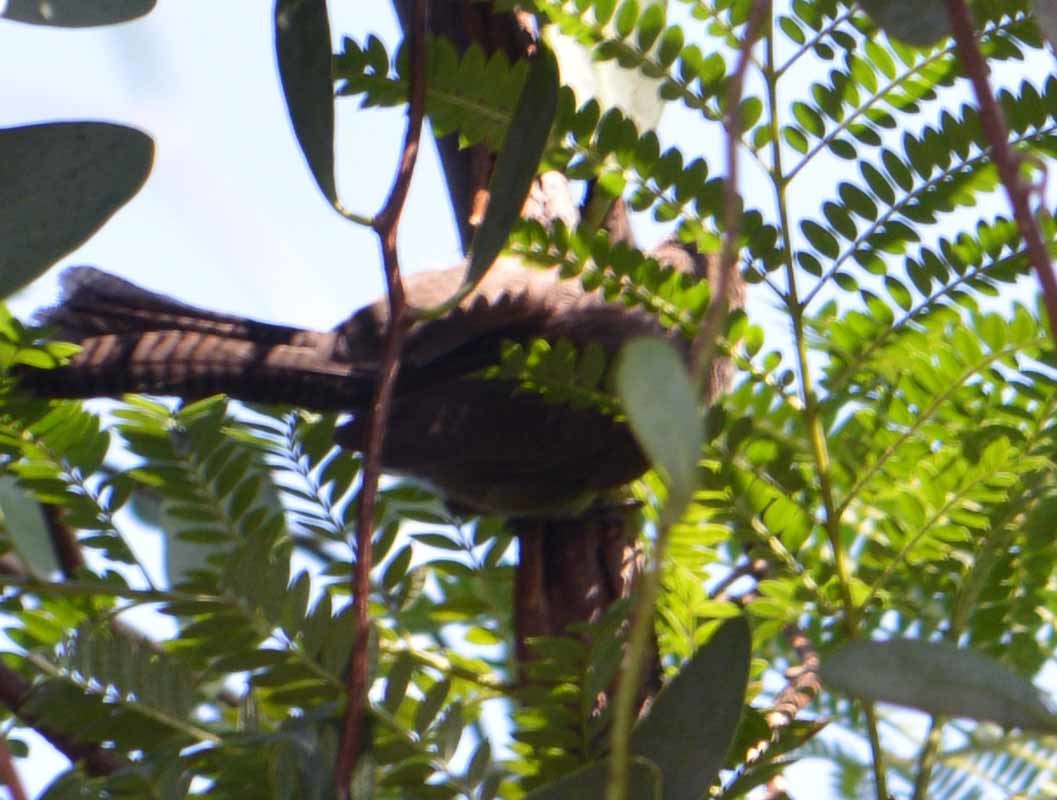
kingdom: Animalia
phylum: Chordata
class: Aves
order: Passeriformes
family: Troglodytidae
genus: Thryomanes
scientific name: Thryomanes bewickii
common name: Bewick's wren
